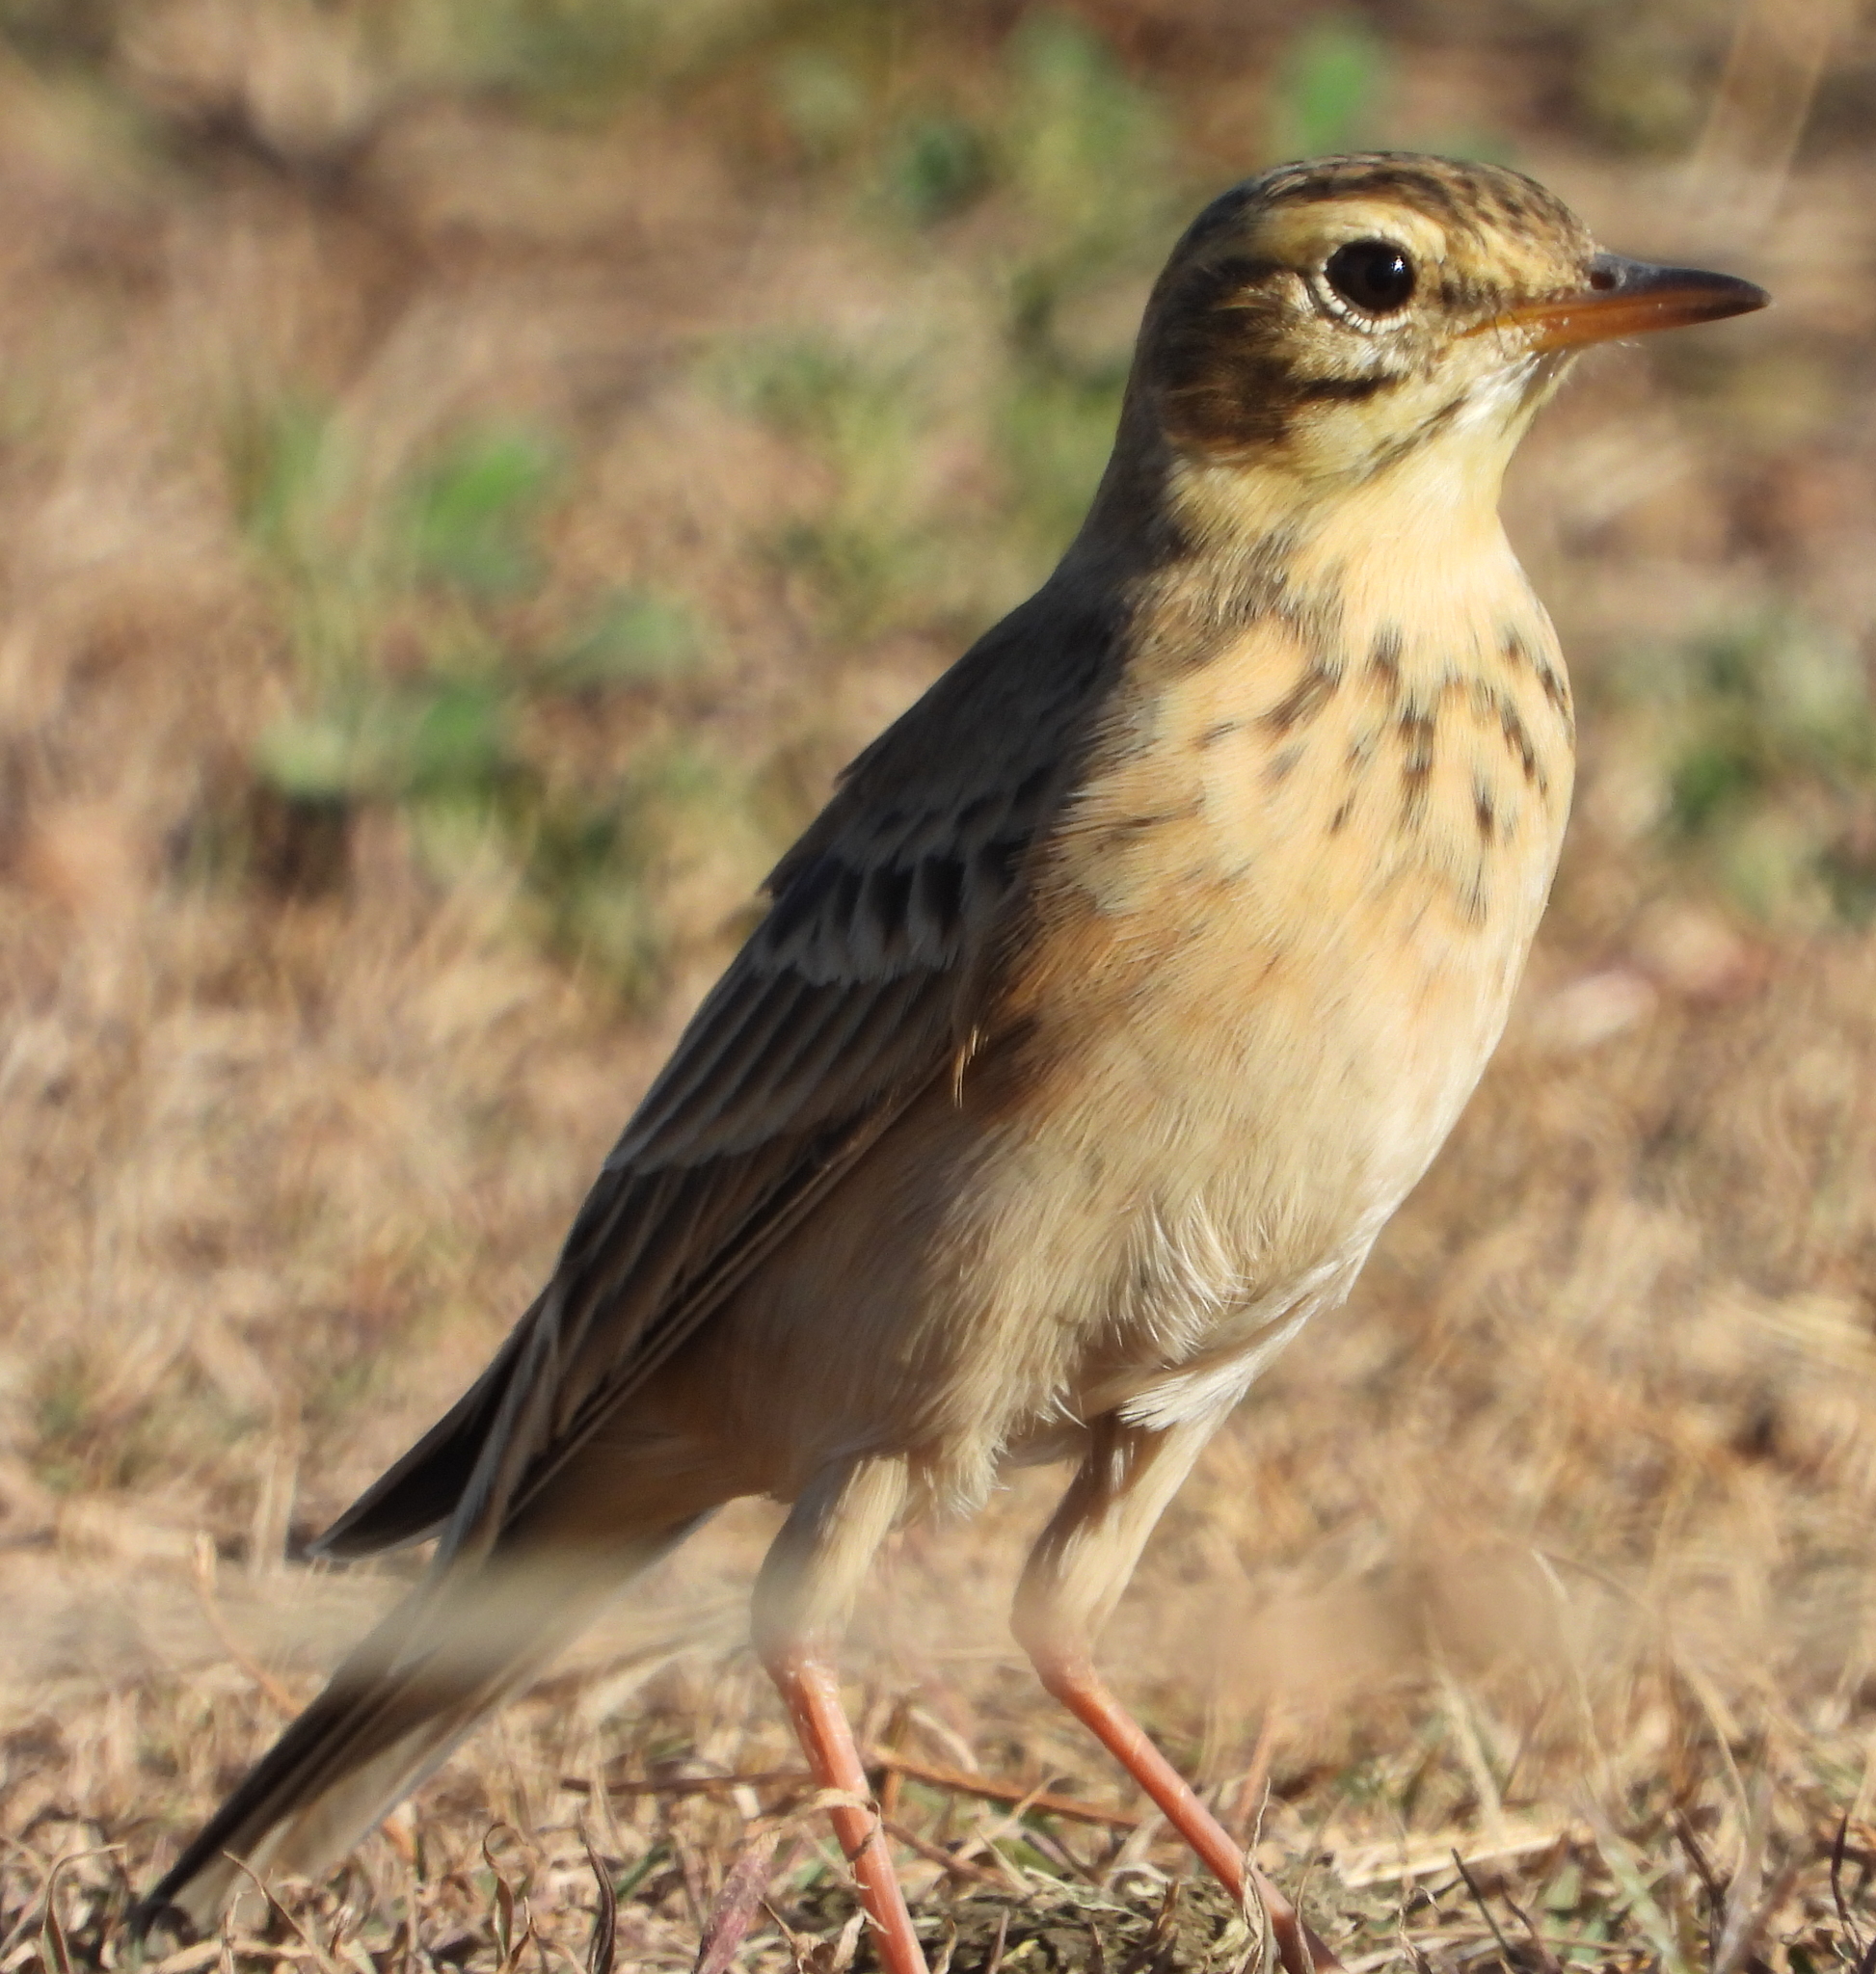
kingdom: Animalia
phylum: Chordata
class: Aves
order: Passeriformes
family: Motacillidae
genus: Anthus
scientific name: Anthus cinnamomeus
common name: African pipit
